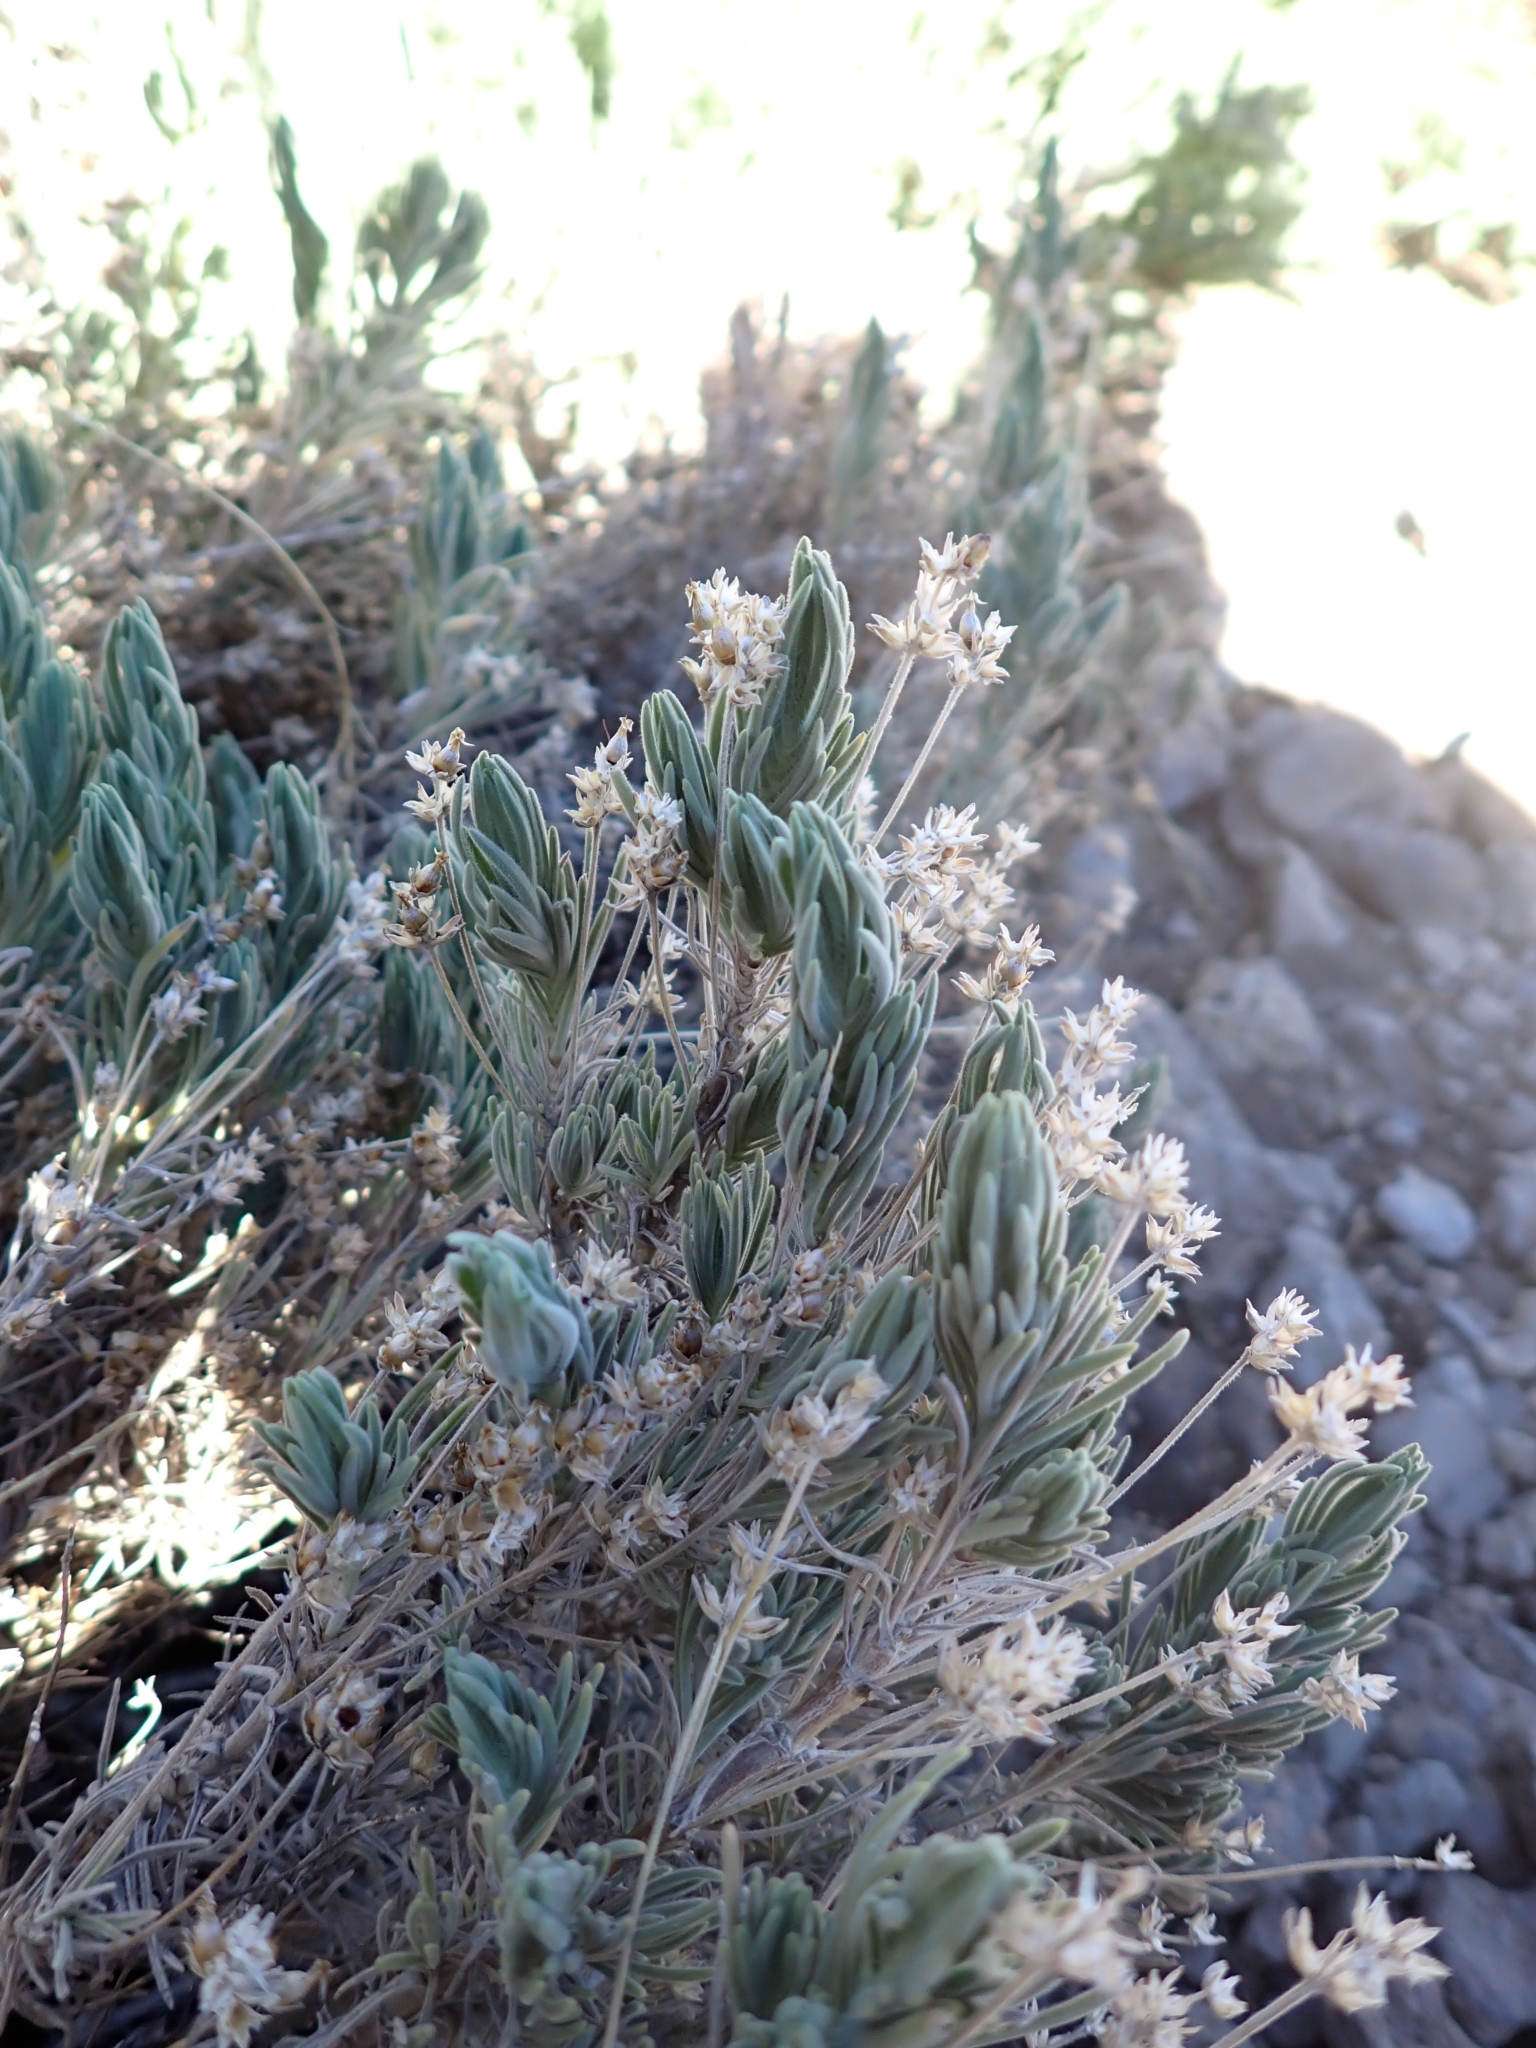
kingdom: Plantae
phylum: Tracheophyta
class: Magnoliopsida
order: Lamiales
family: Plantaginaceae
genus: Plantago
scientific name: Plantago webbii
